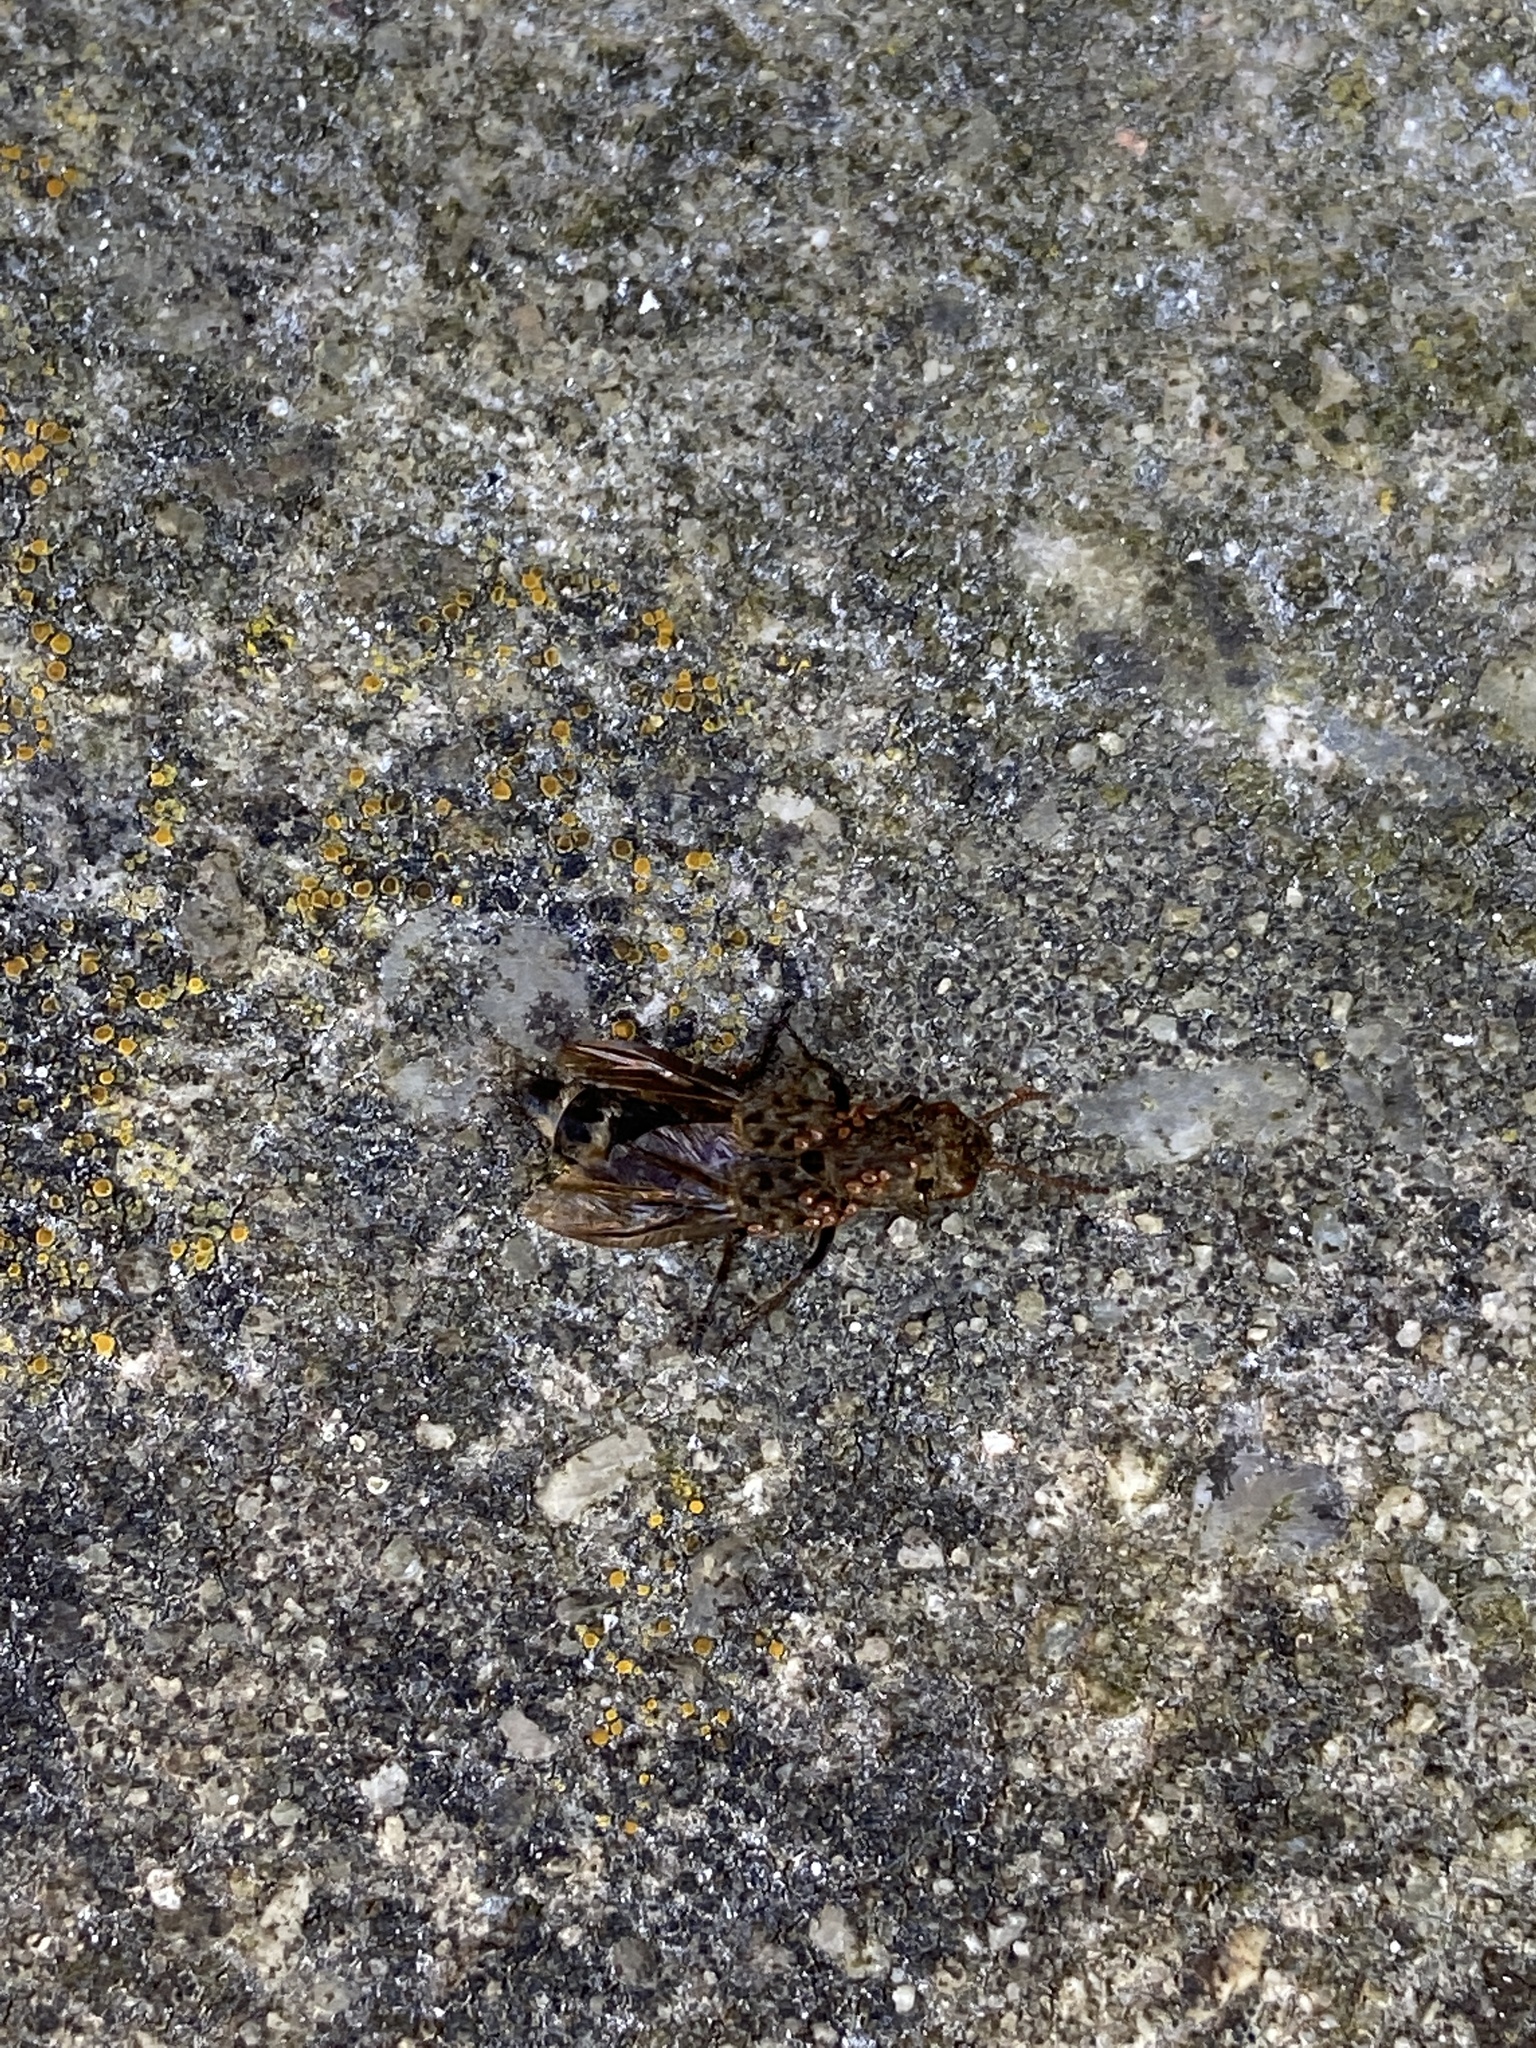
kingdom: Animalia
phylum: Arthropoda
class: Insecta
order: Coleoptera
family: Staphylinidae
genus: Ontholestes
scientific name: Ontholestes murinus
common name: Staph beetle
